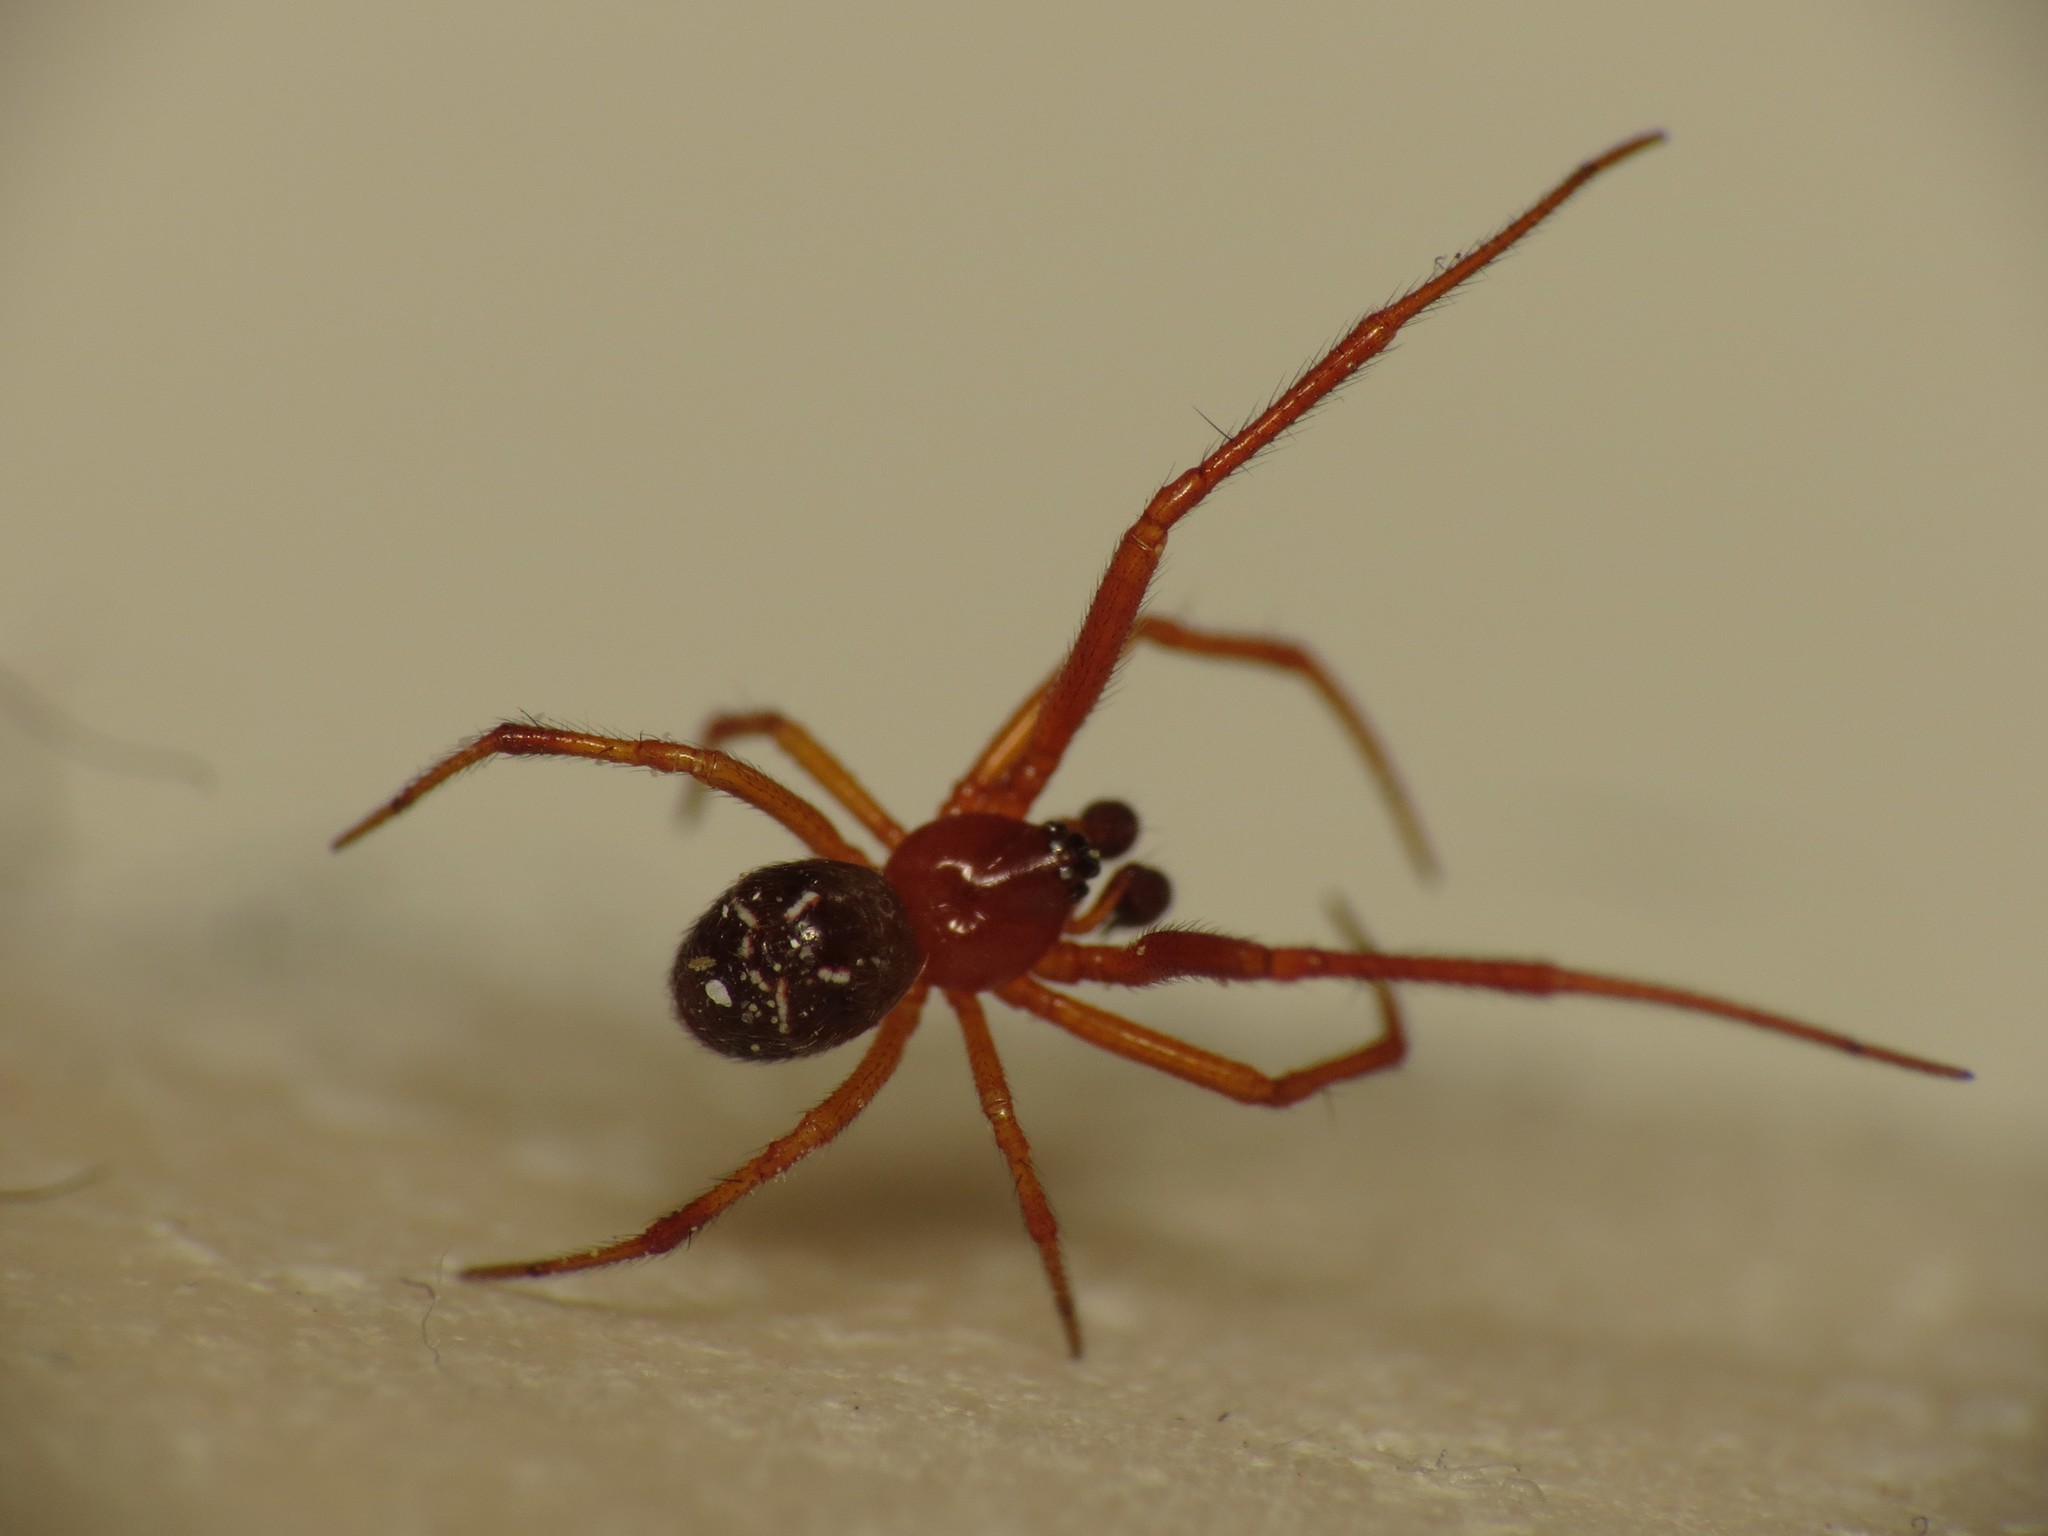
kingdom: Animalia
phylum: Arthropoda
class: Arachnida
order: Araneae
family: Theridiidae
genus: Parasteatoda
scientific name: Parasteatoda tepidariorum
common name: Common house spider
